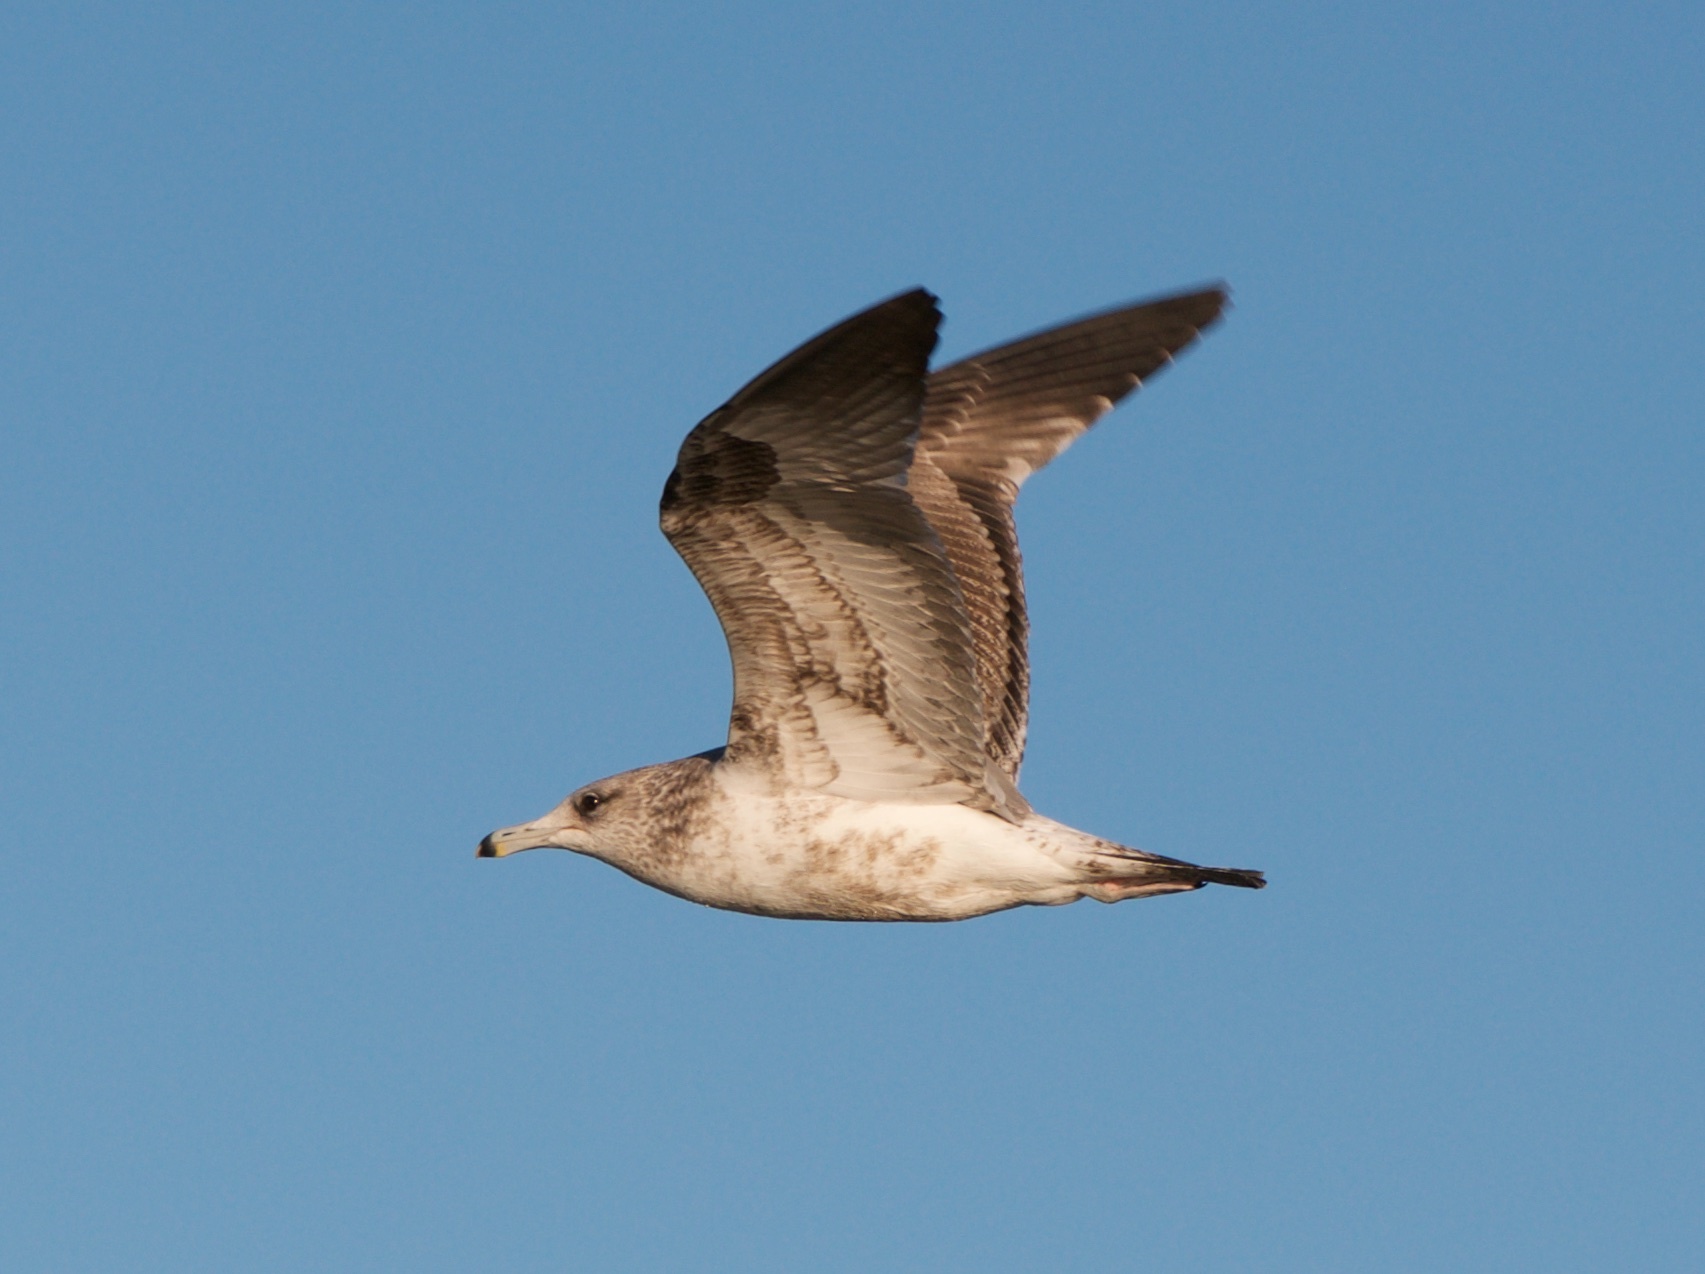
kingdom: Animalia
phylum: Chordata
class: Aves
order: Charadriiformes
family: Laridae
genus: Larus
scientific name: Larus californicus
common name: California gull
